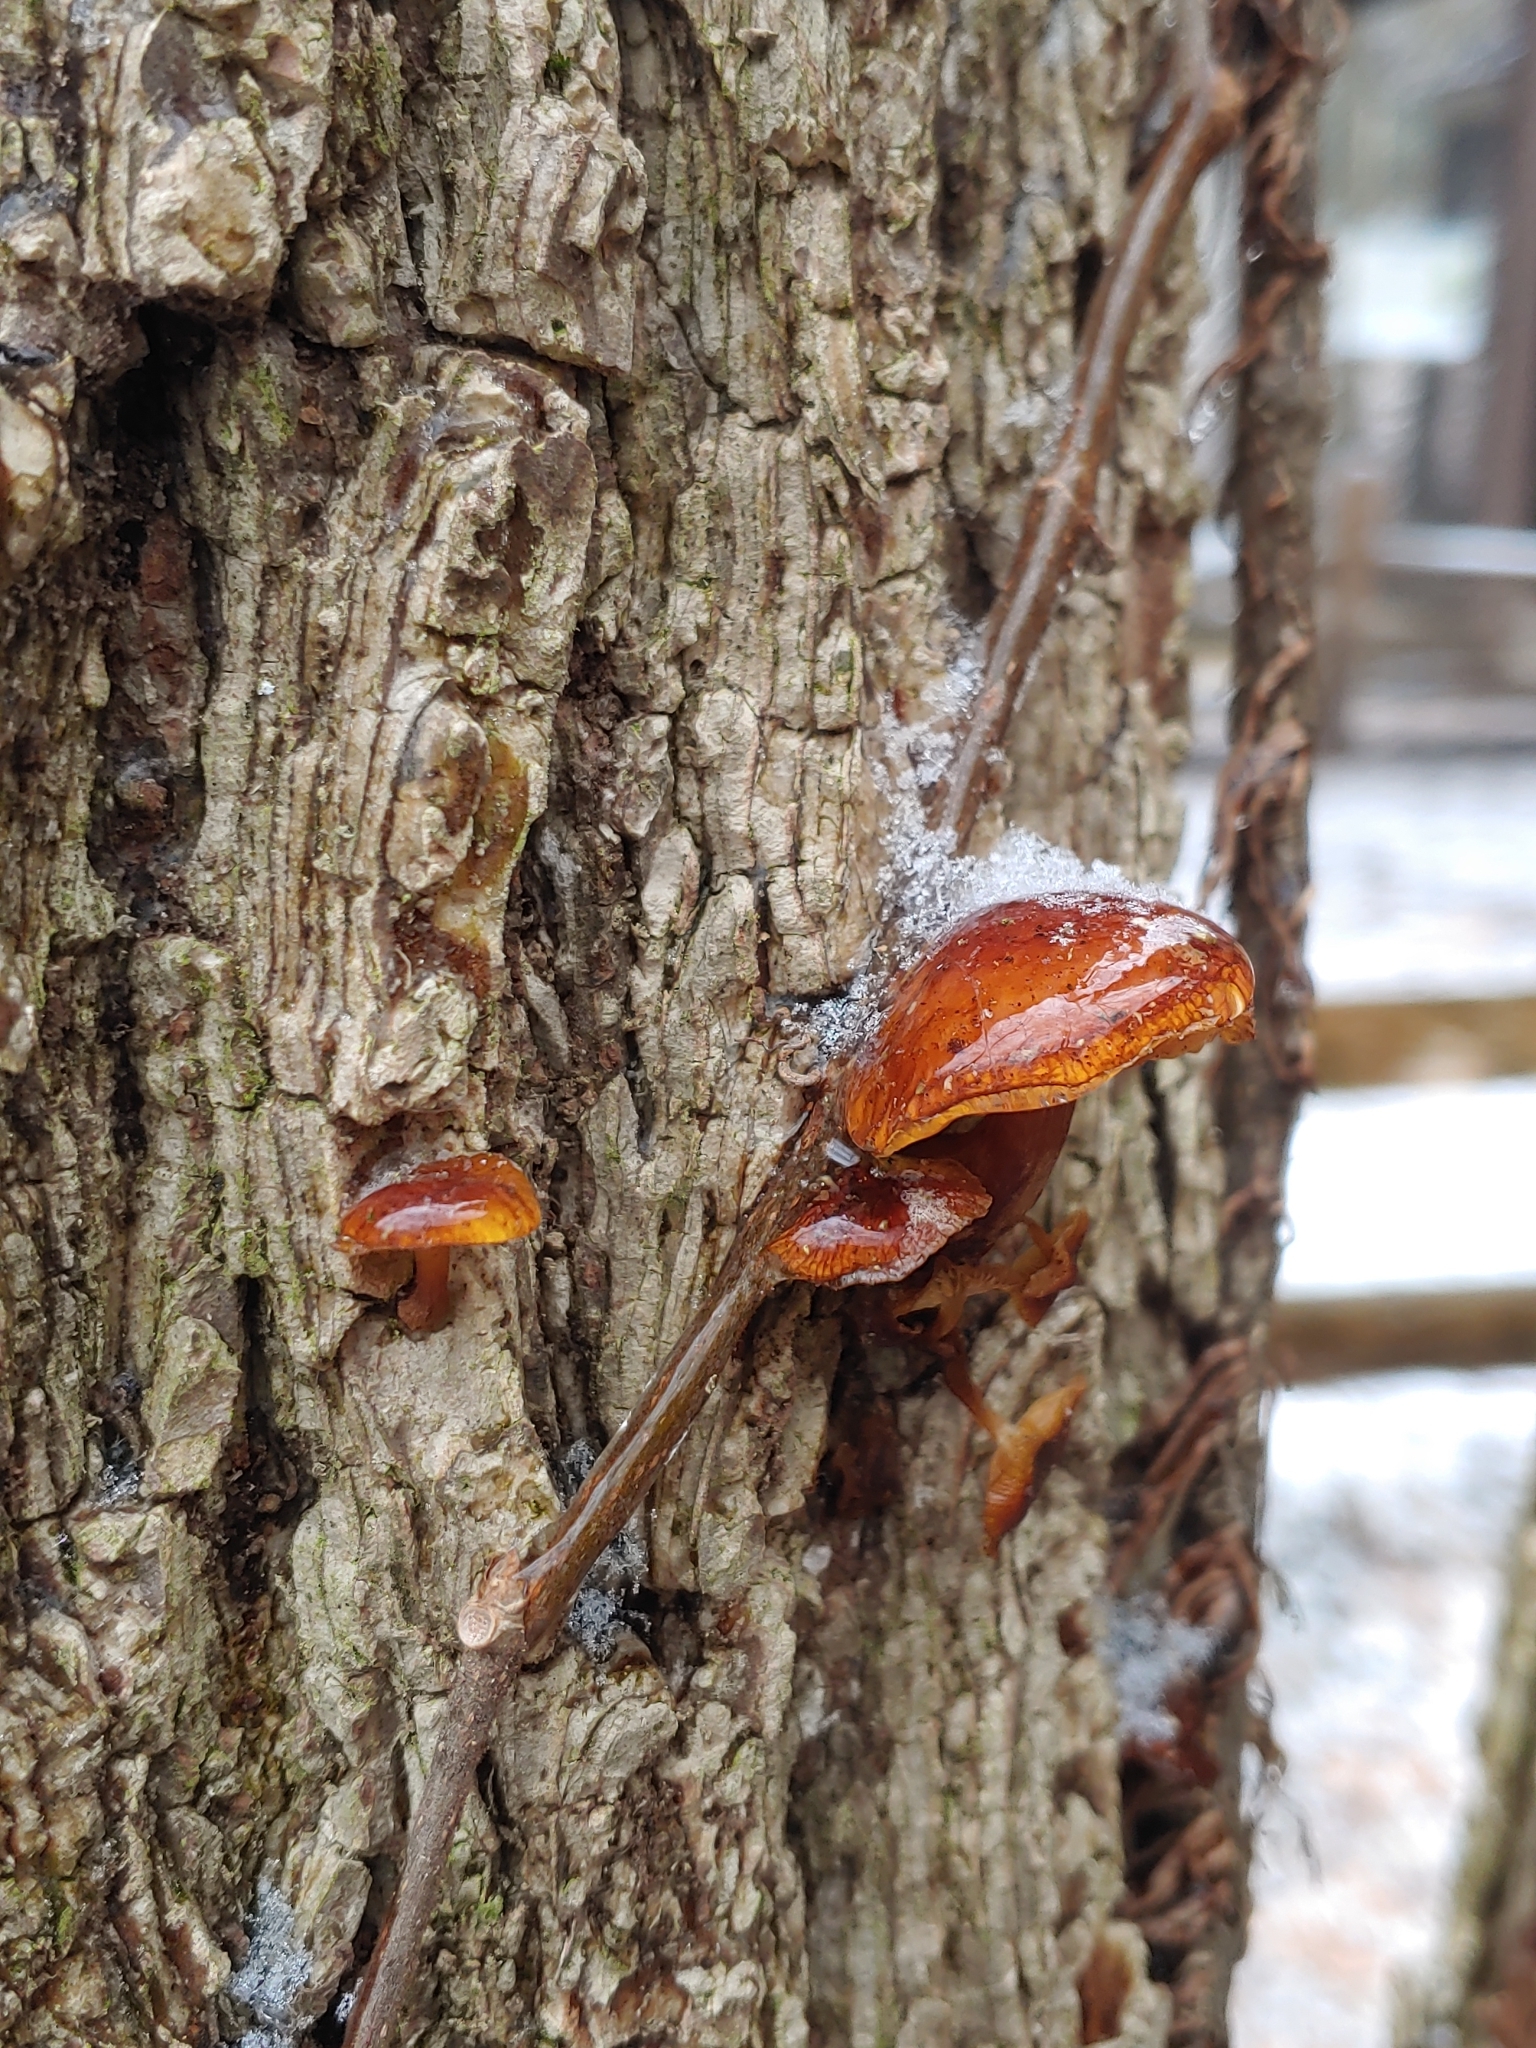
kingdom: Fungi
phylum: Basidiomycota
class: Agaricomycetes
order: Agaricales
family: Physalacriaceae
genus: Flammulina
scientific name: Flammulina velutipes
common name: Velvet shank
